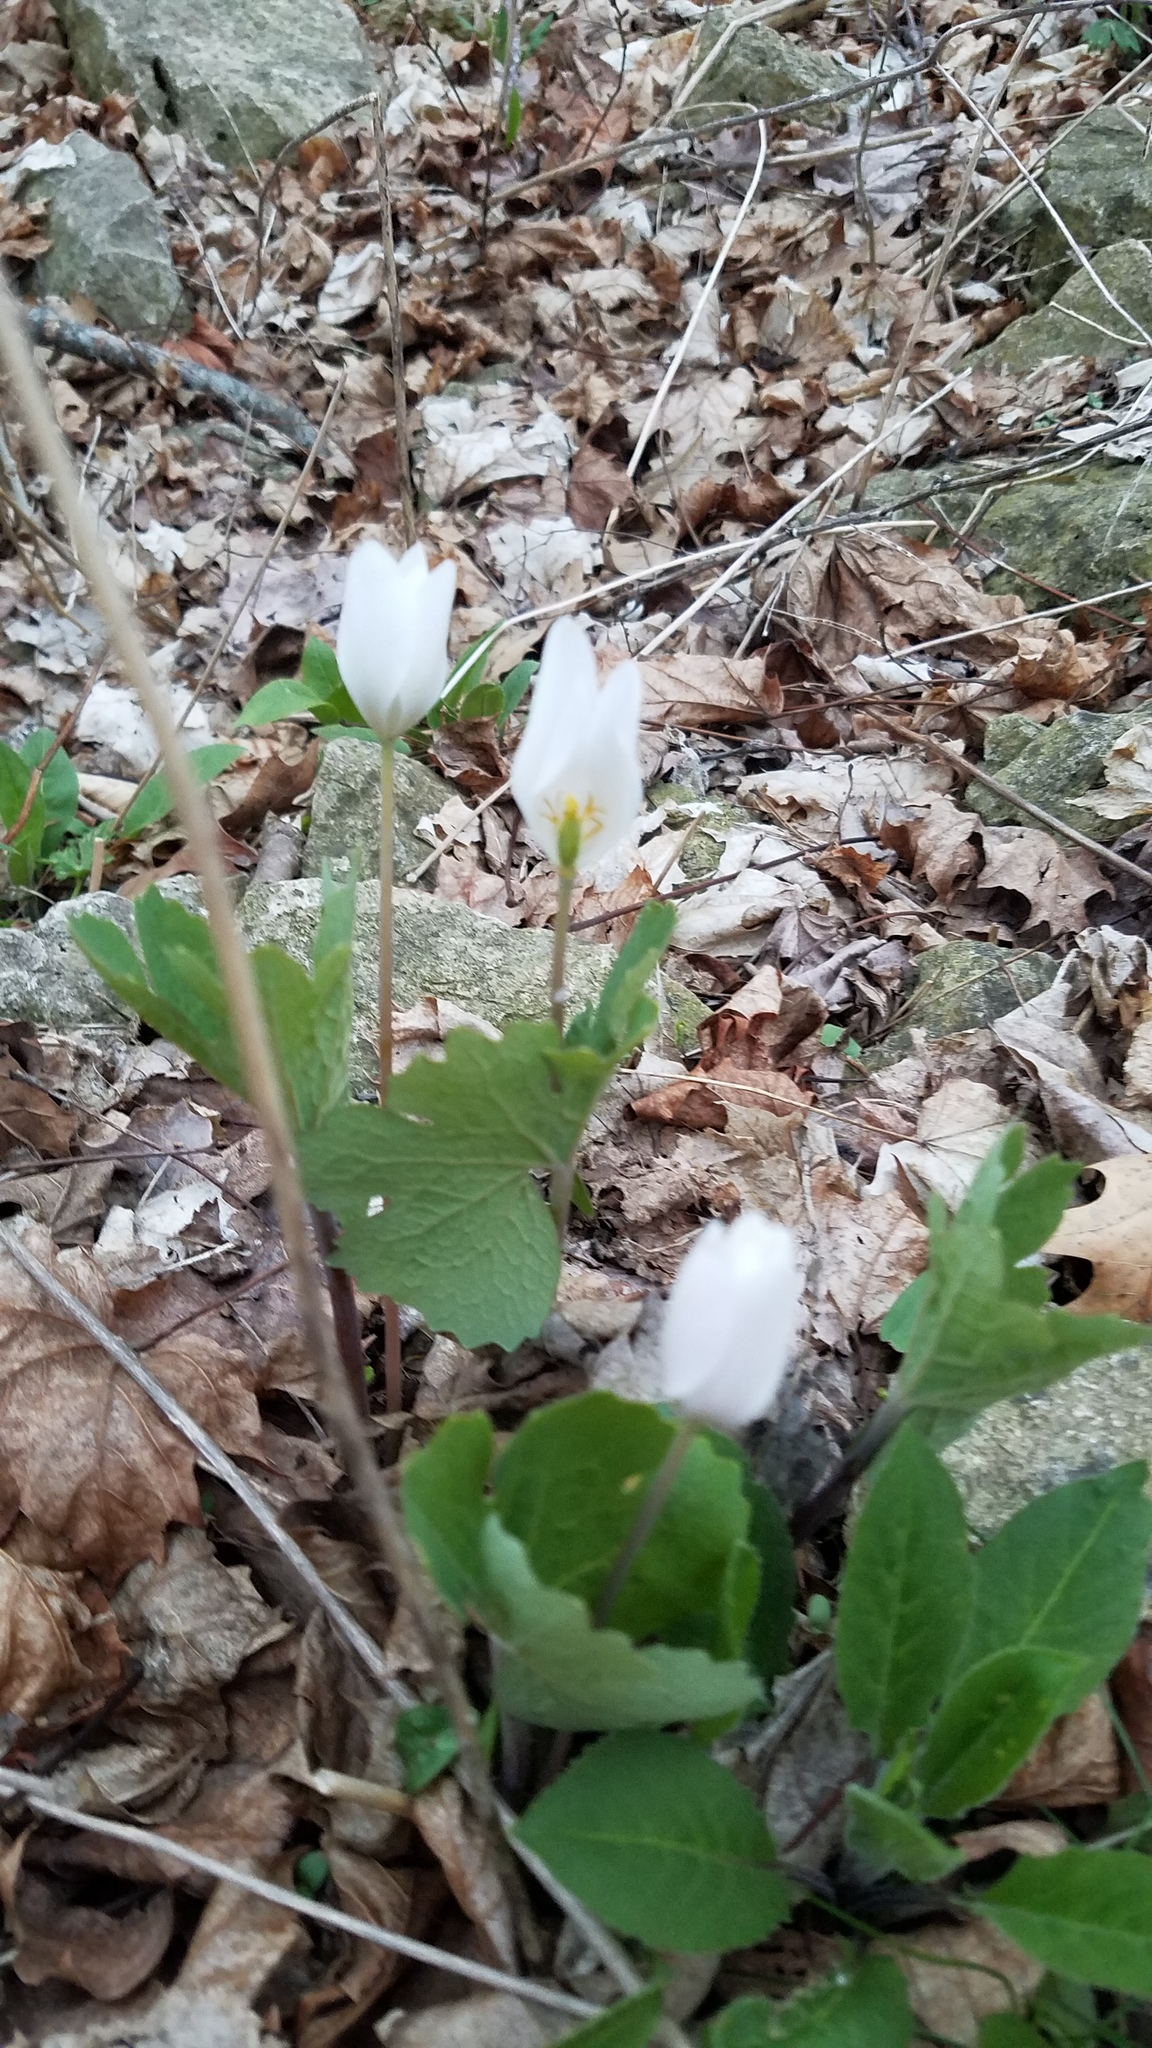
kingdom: Plantae
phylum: Tracheophyta
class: Magnoliopsida
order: Ranunculales
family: Papaveraceae
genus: Sanguinaria
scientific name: Sanguinaria canadensis
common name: Bloodroot
